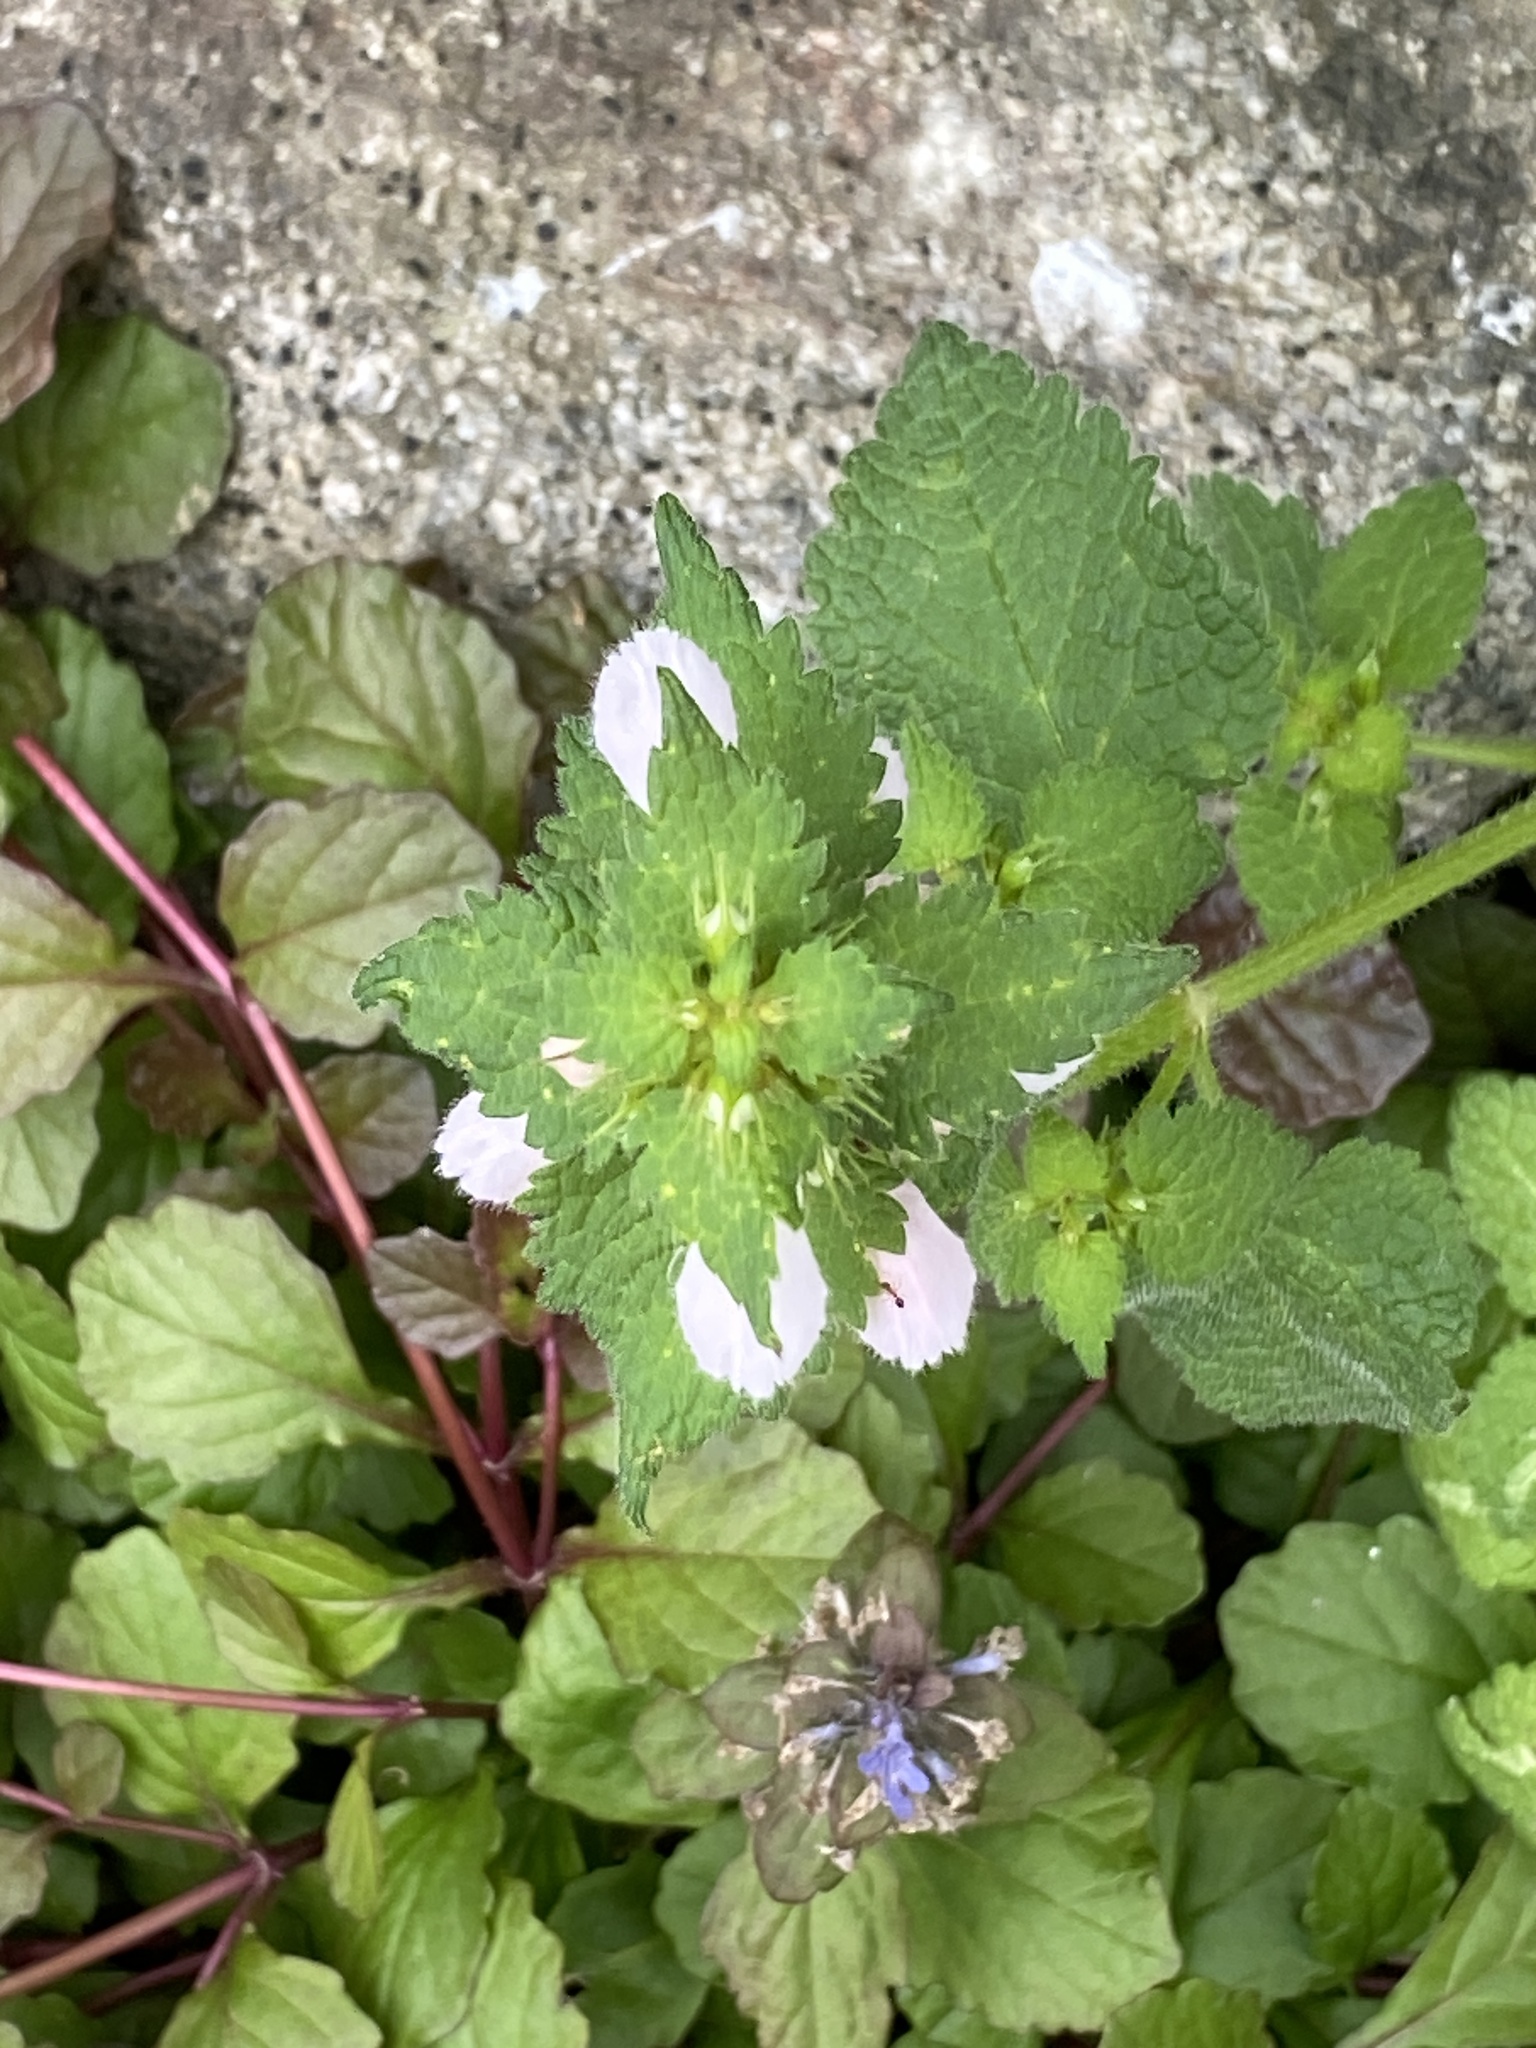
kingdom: Plantae
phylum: Tracheophyta
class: Magnoliopsida
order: Lamiales
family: Lamiaceae
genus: Lamium
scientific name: Lamium maculatum
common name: Spotted dead-nettle
